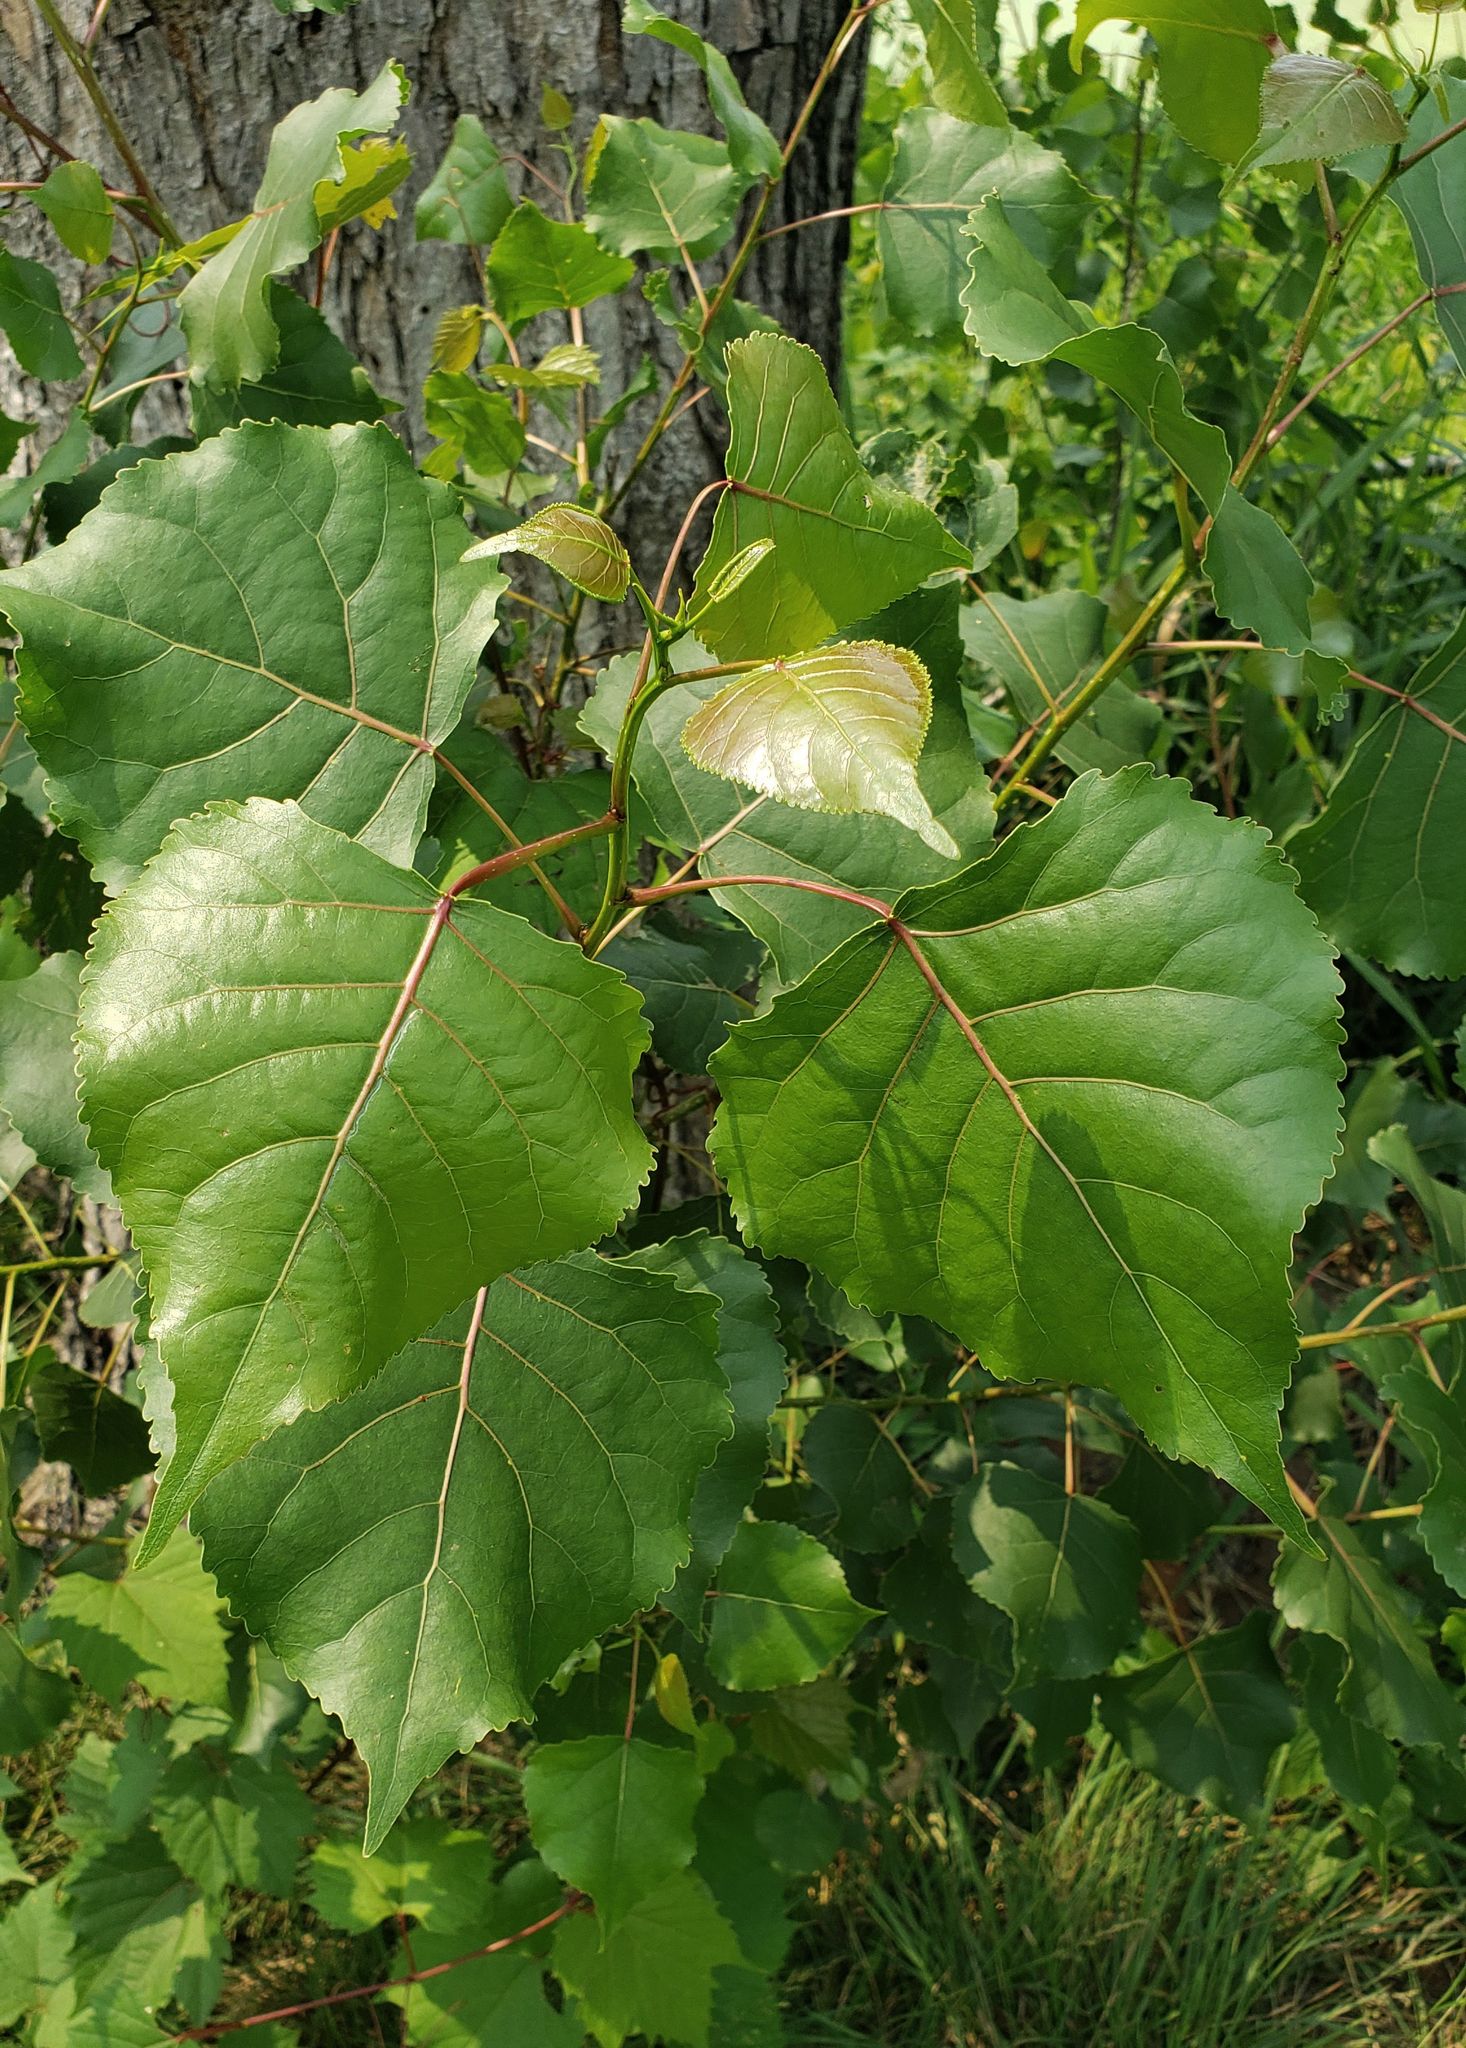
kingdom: Plantae
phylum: Tracheophyta
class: Magnoliopsida
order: Malpighiales
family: Salicaceae
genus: Populus
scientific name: Populus deltoides
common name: Eastern cottonwood
